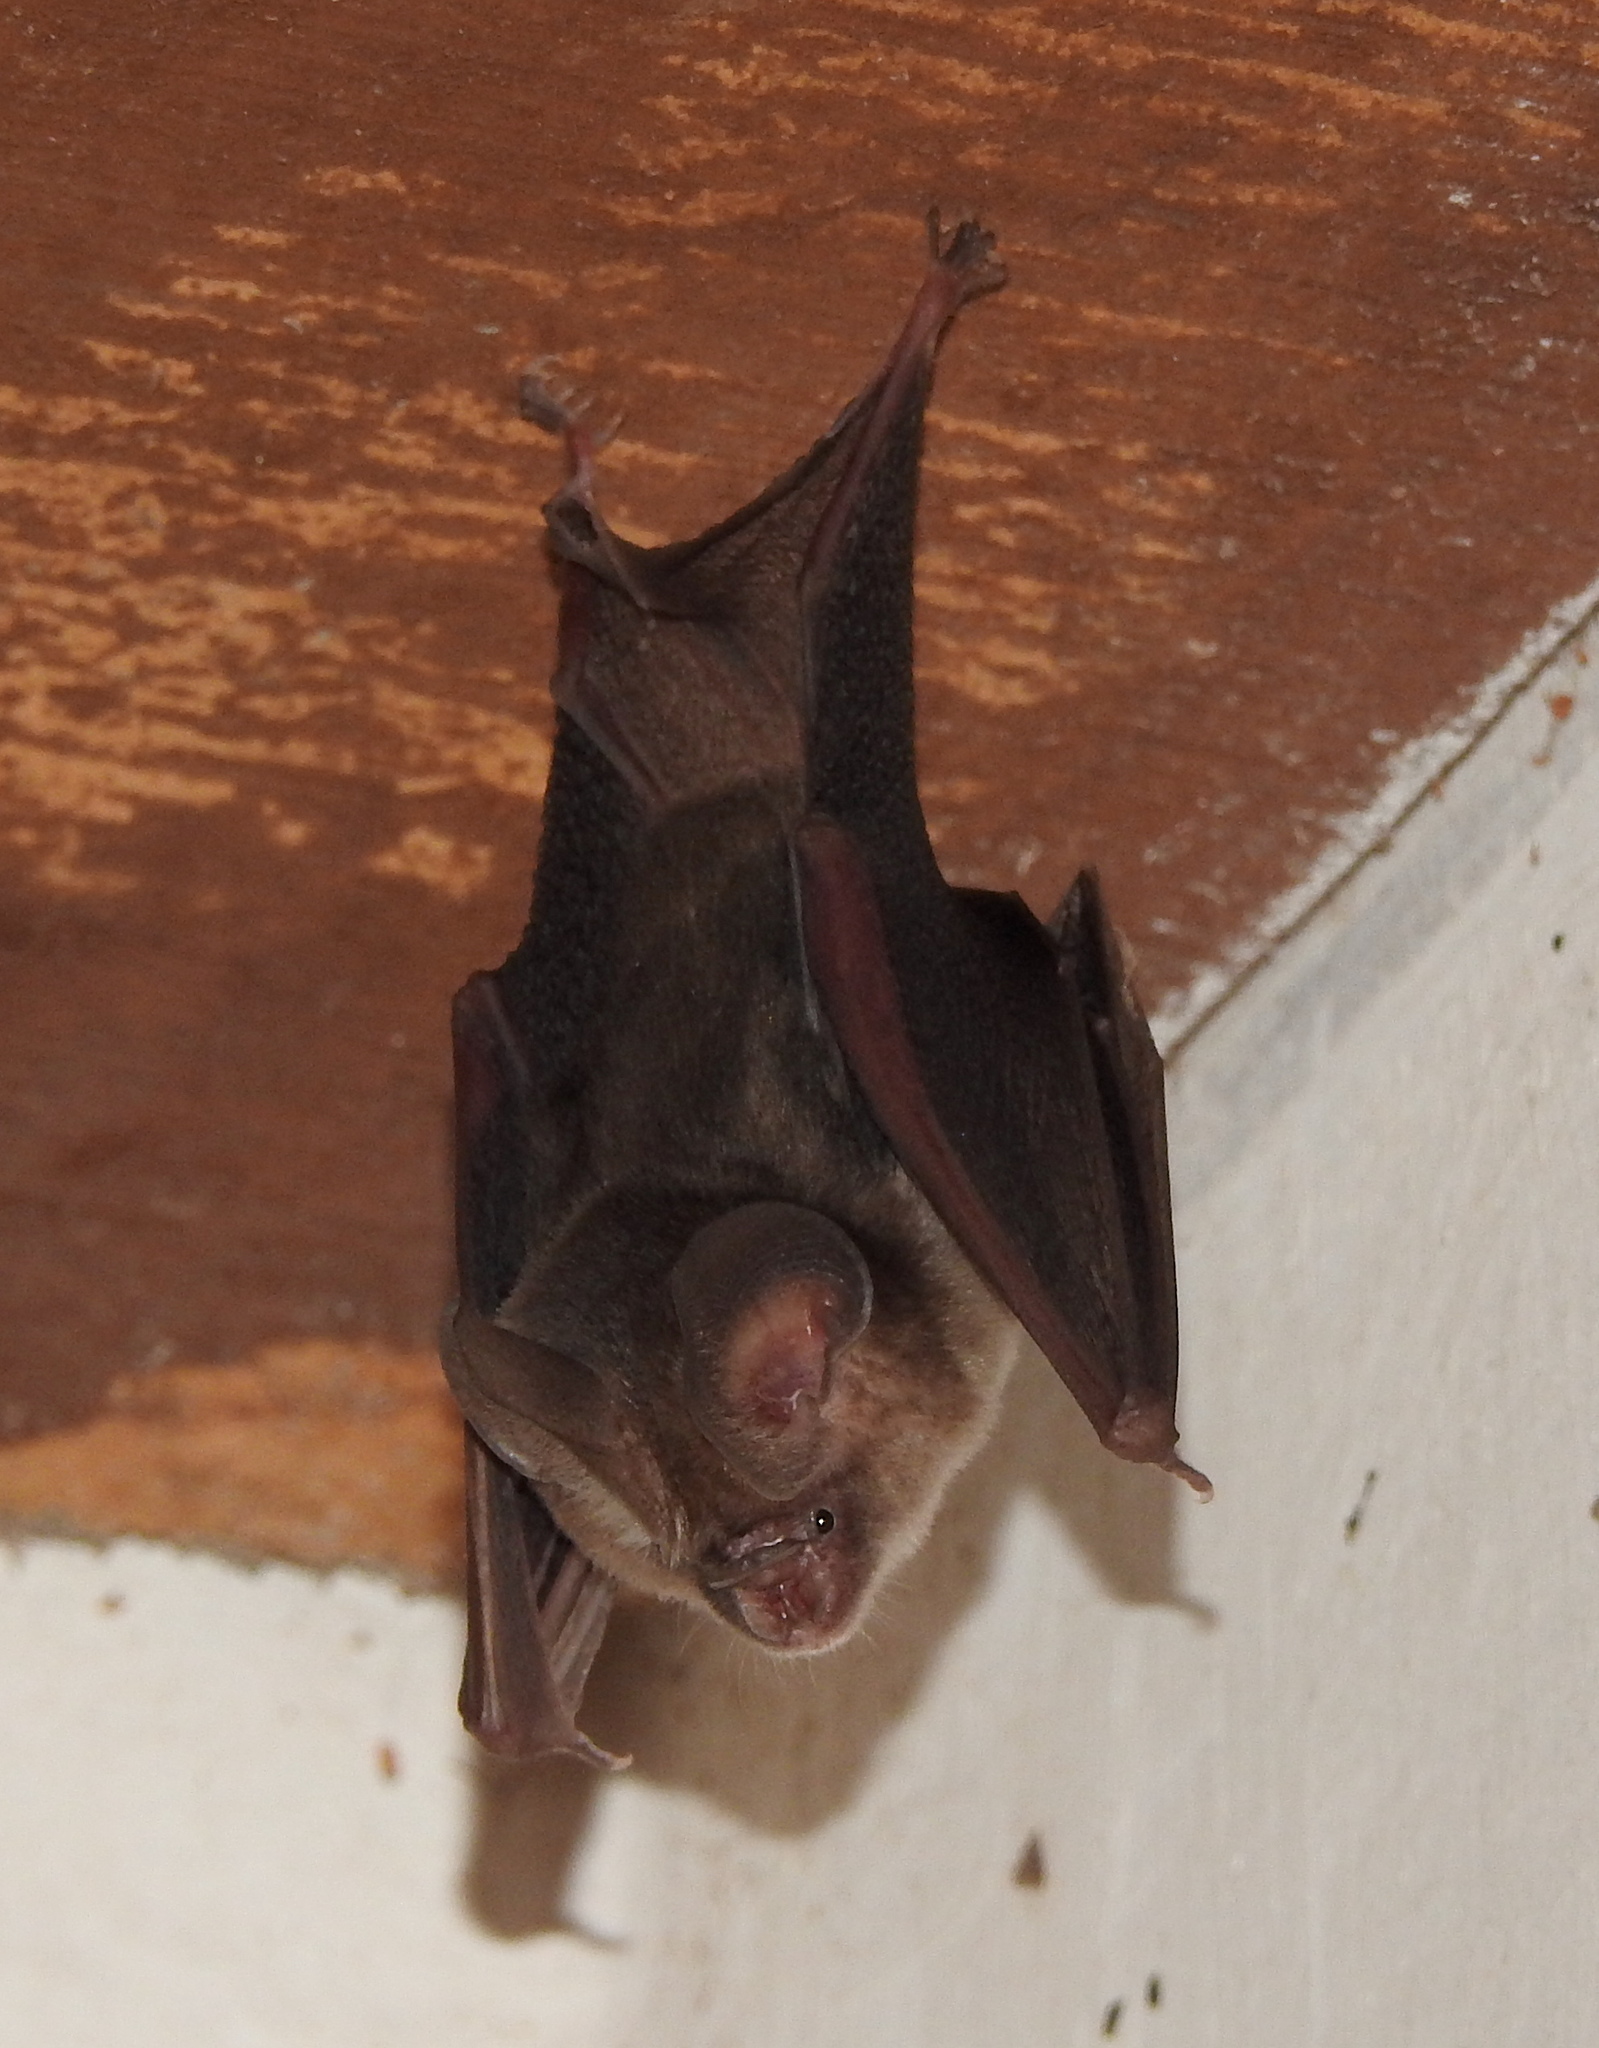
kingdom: Animalia
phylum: Chordata
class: Mammalia
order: Chiroptera
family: Hipposideridae
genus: Hipposideros
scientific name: Hipposideros fulvus
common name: Fulvus leaf-nosed bat
